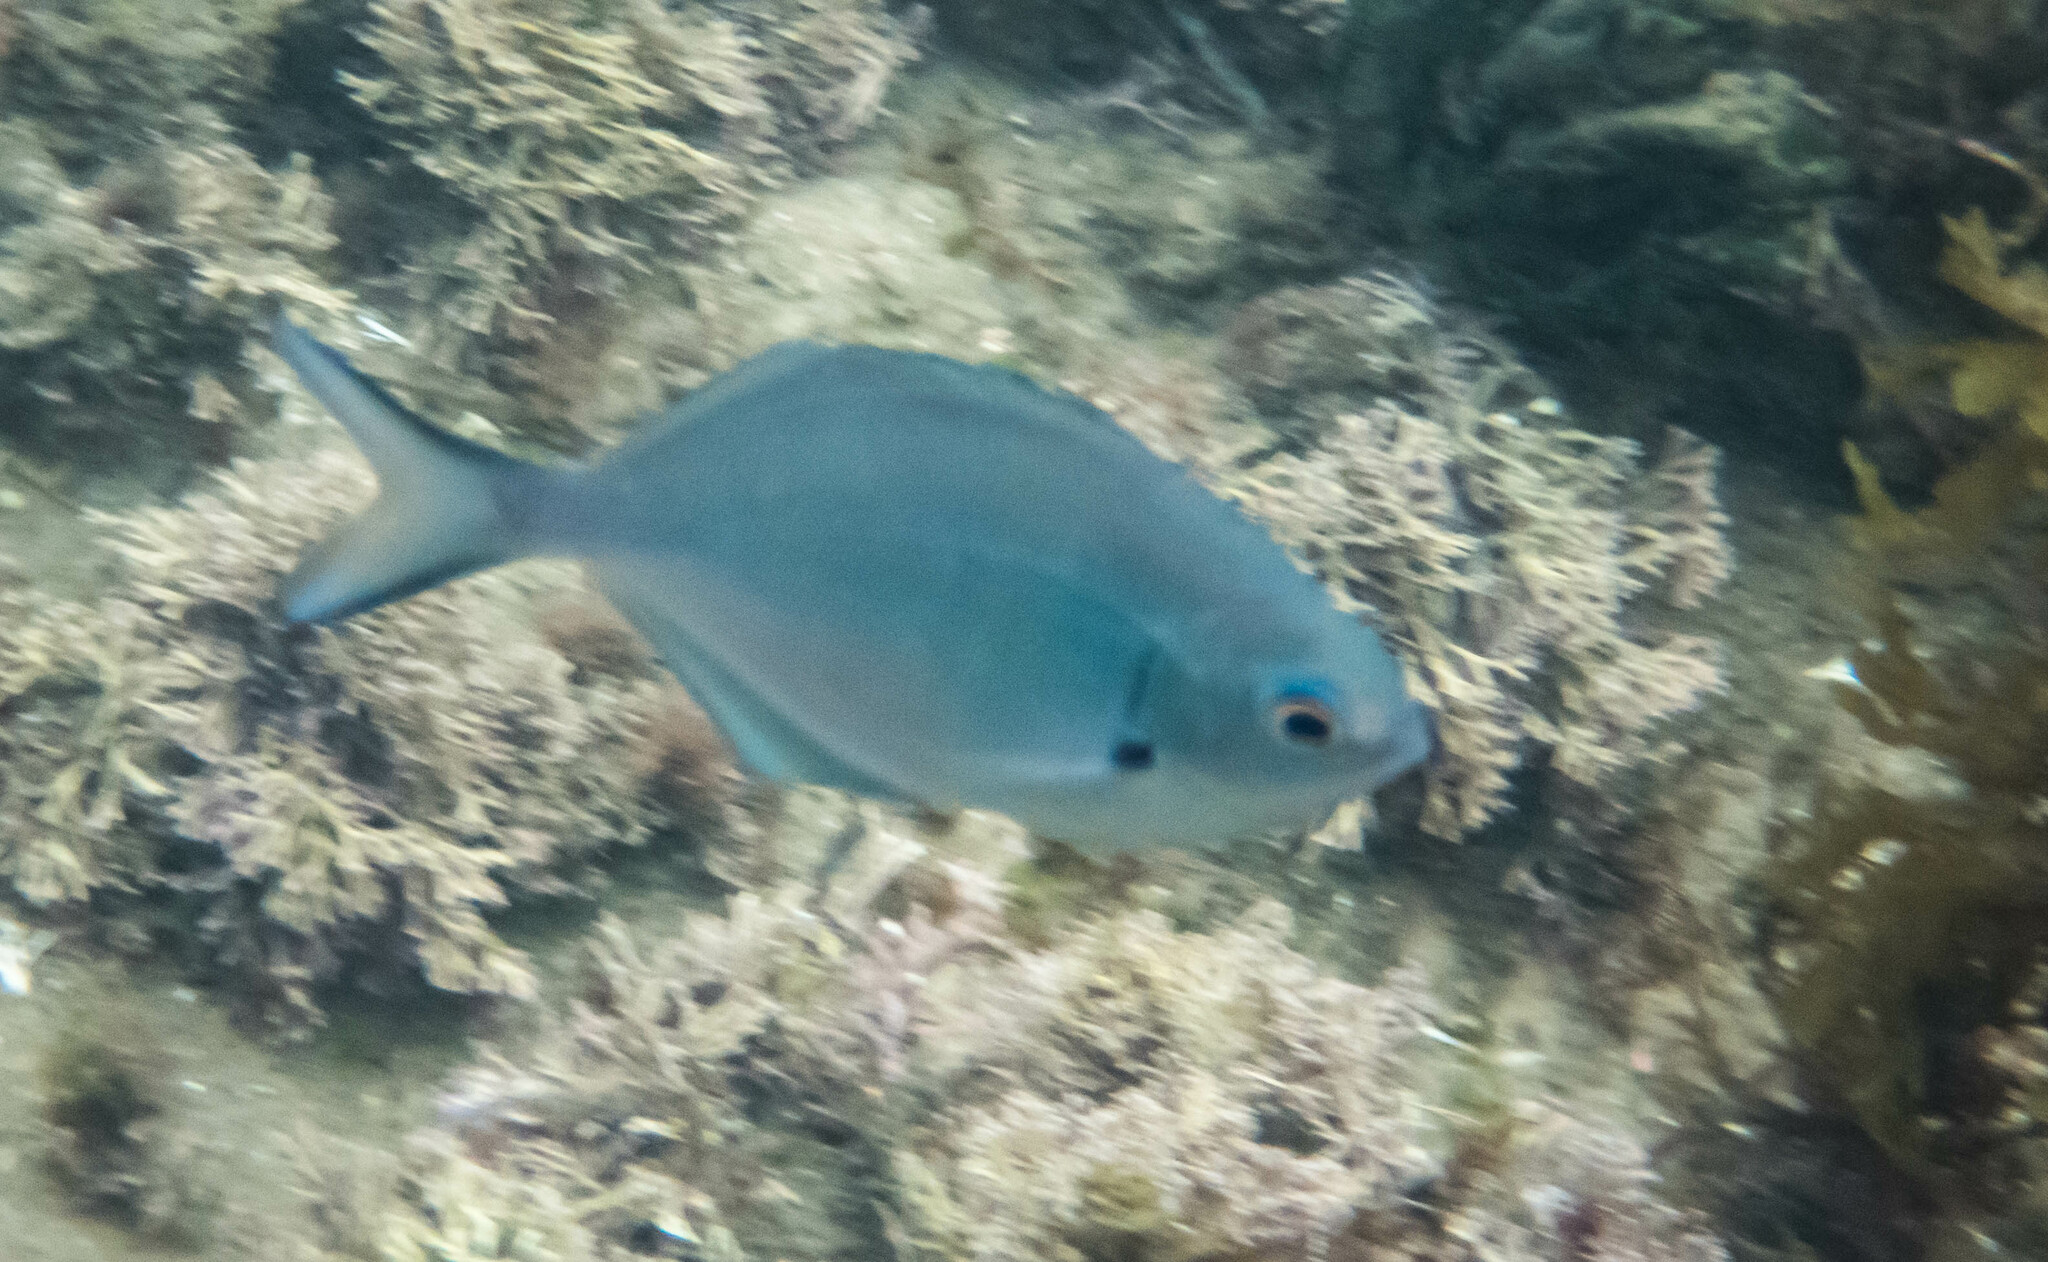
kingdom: Animalia
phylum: Chordata
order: Perciformes
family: Kyphosidae
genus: Scorpis
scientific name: Scorpis lineolata
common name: Sweep
